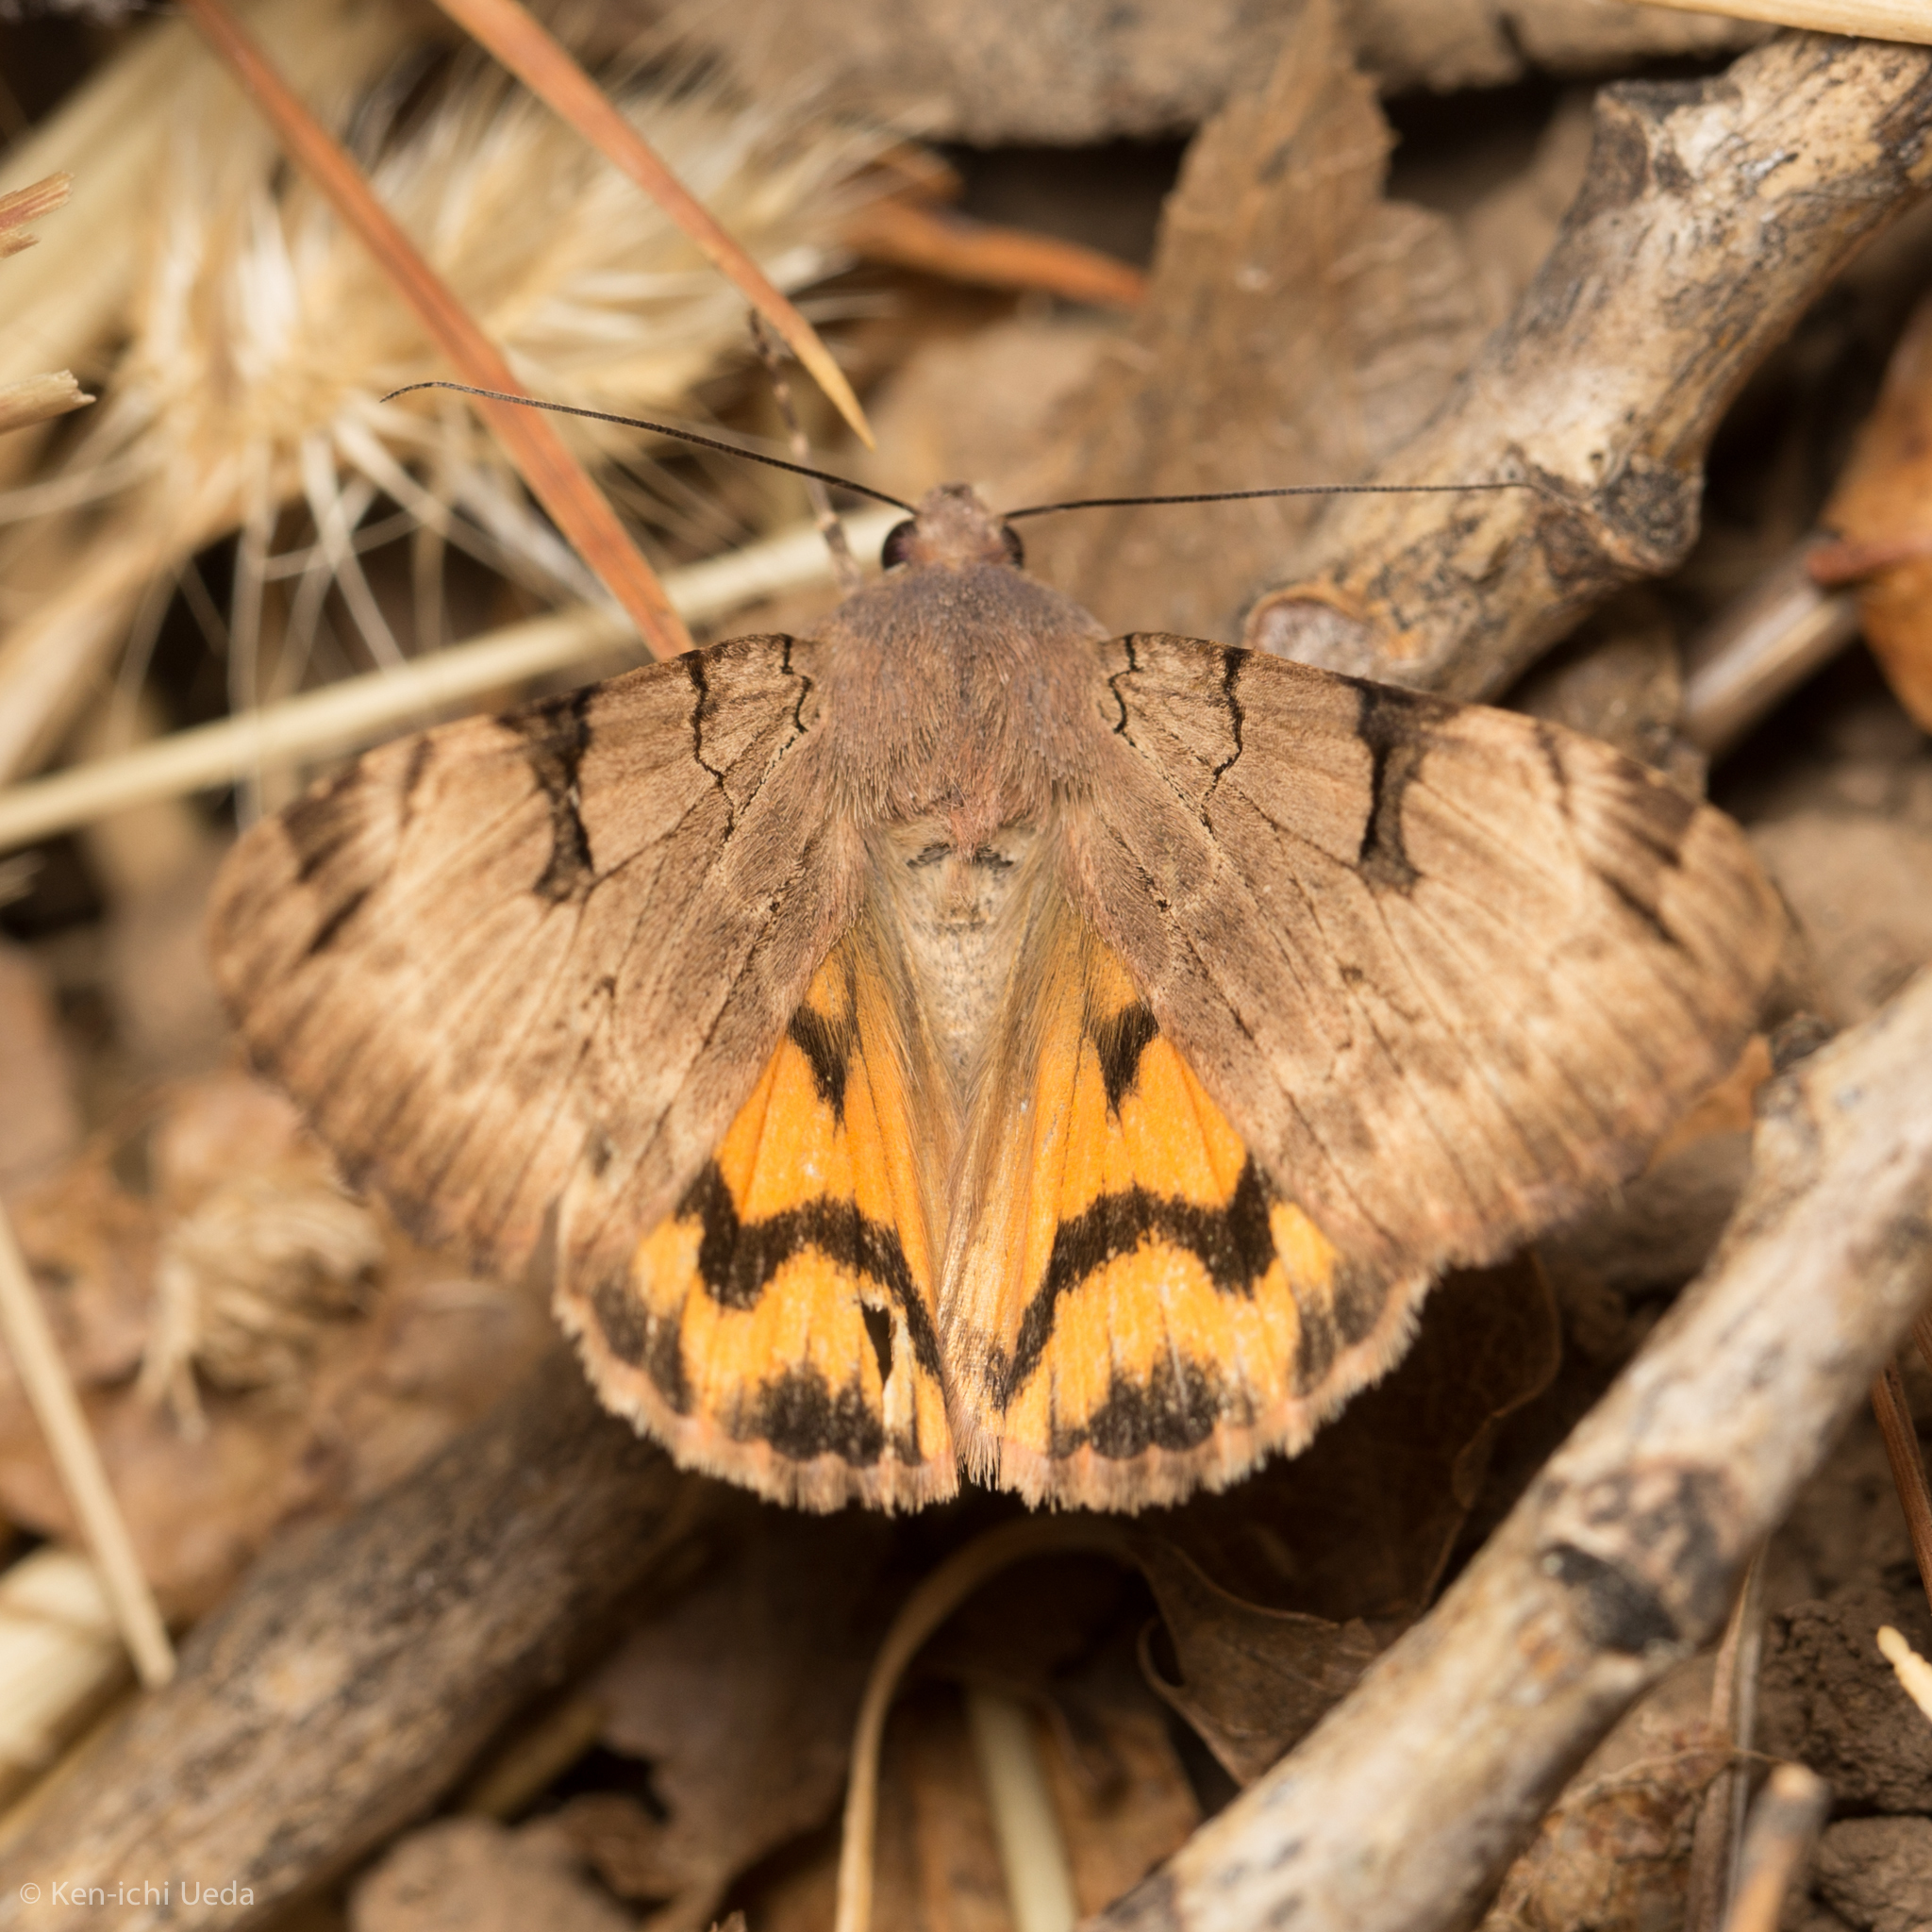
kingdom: Animalia
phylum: Arthropoda
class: Insecta
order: Lepidoptera
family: Erebidae
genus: Drasteria
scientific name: Drasteria ochracea
